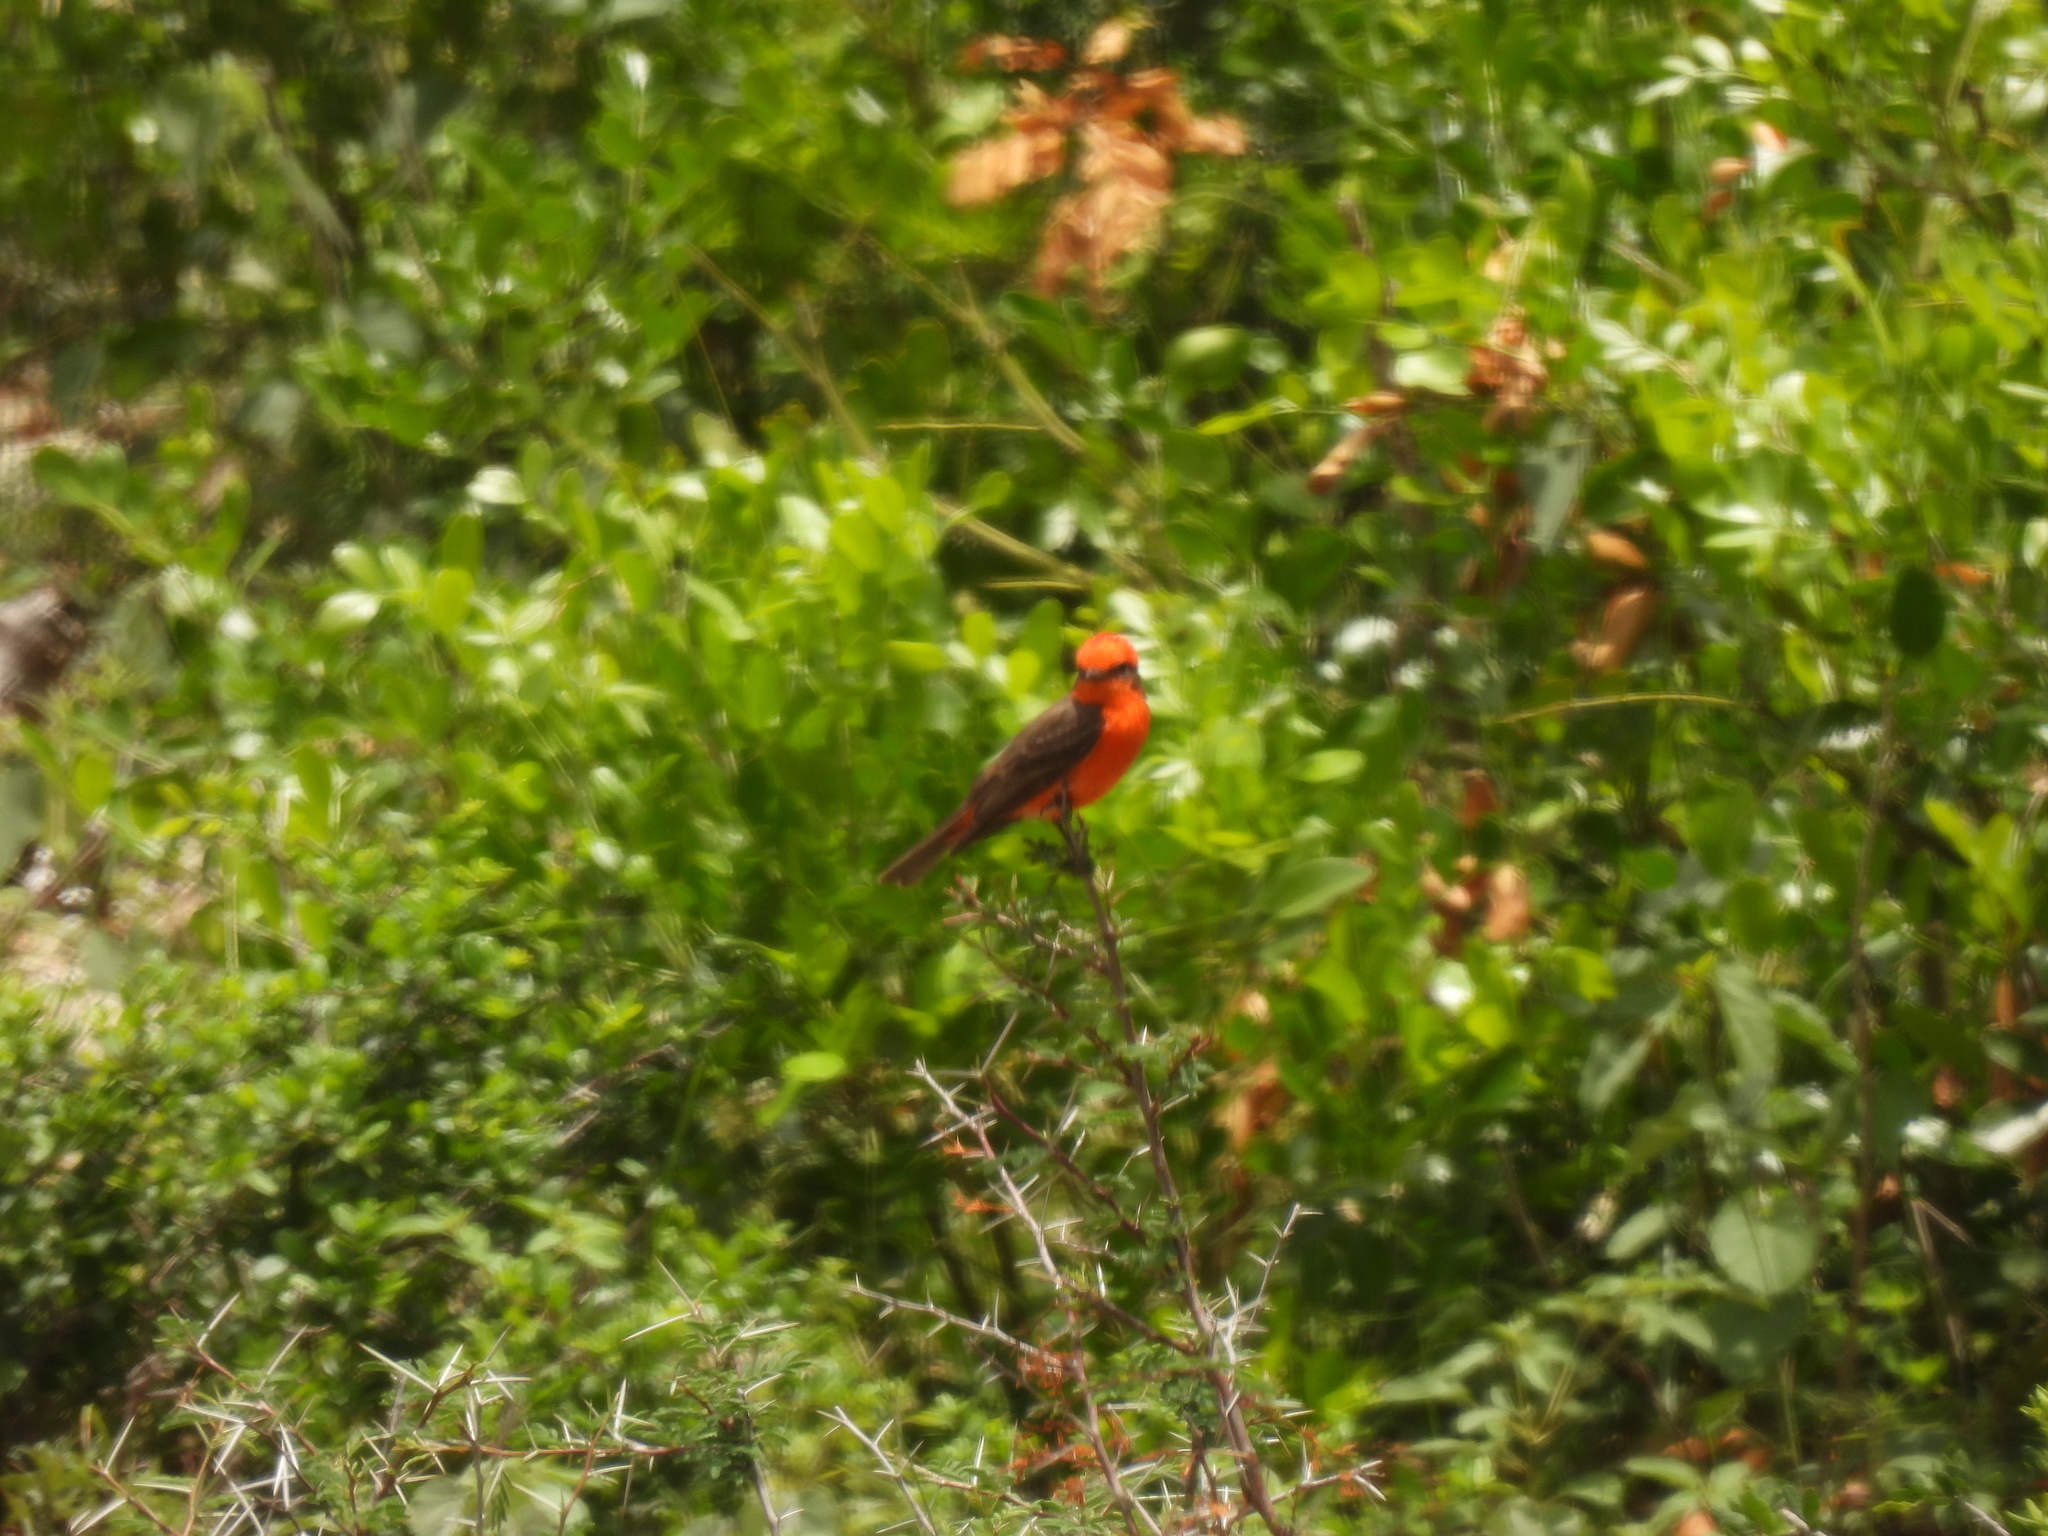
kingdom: Animalia
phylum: Chordata
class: Aves
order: Passeriformes
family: Tyrannidae
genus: Pyrocephalus
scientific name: Pyrocephalus rubinus
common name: Vermilion flycatcher
